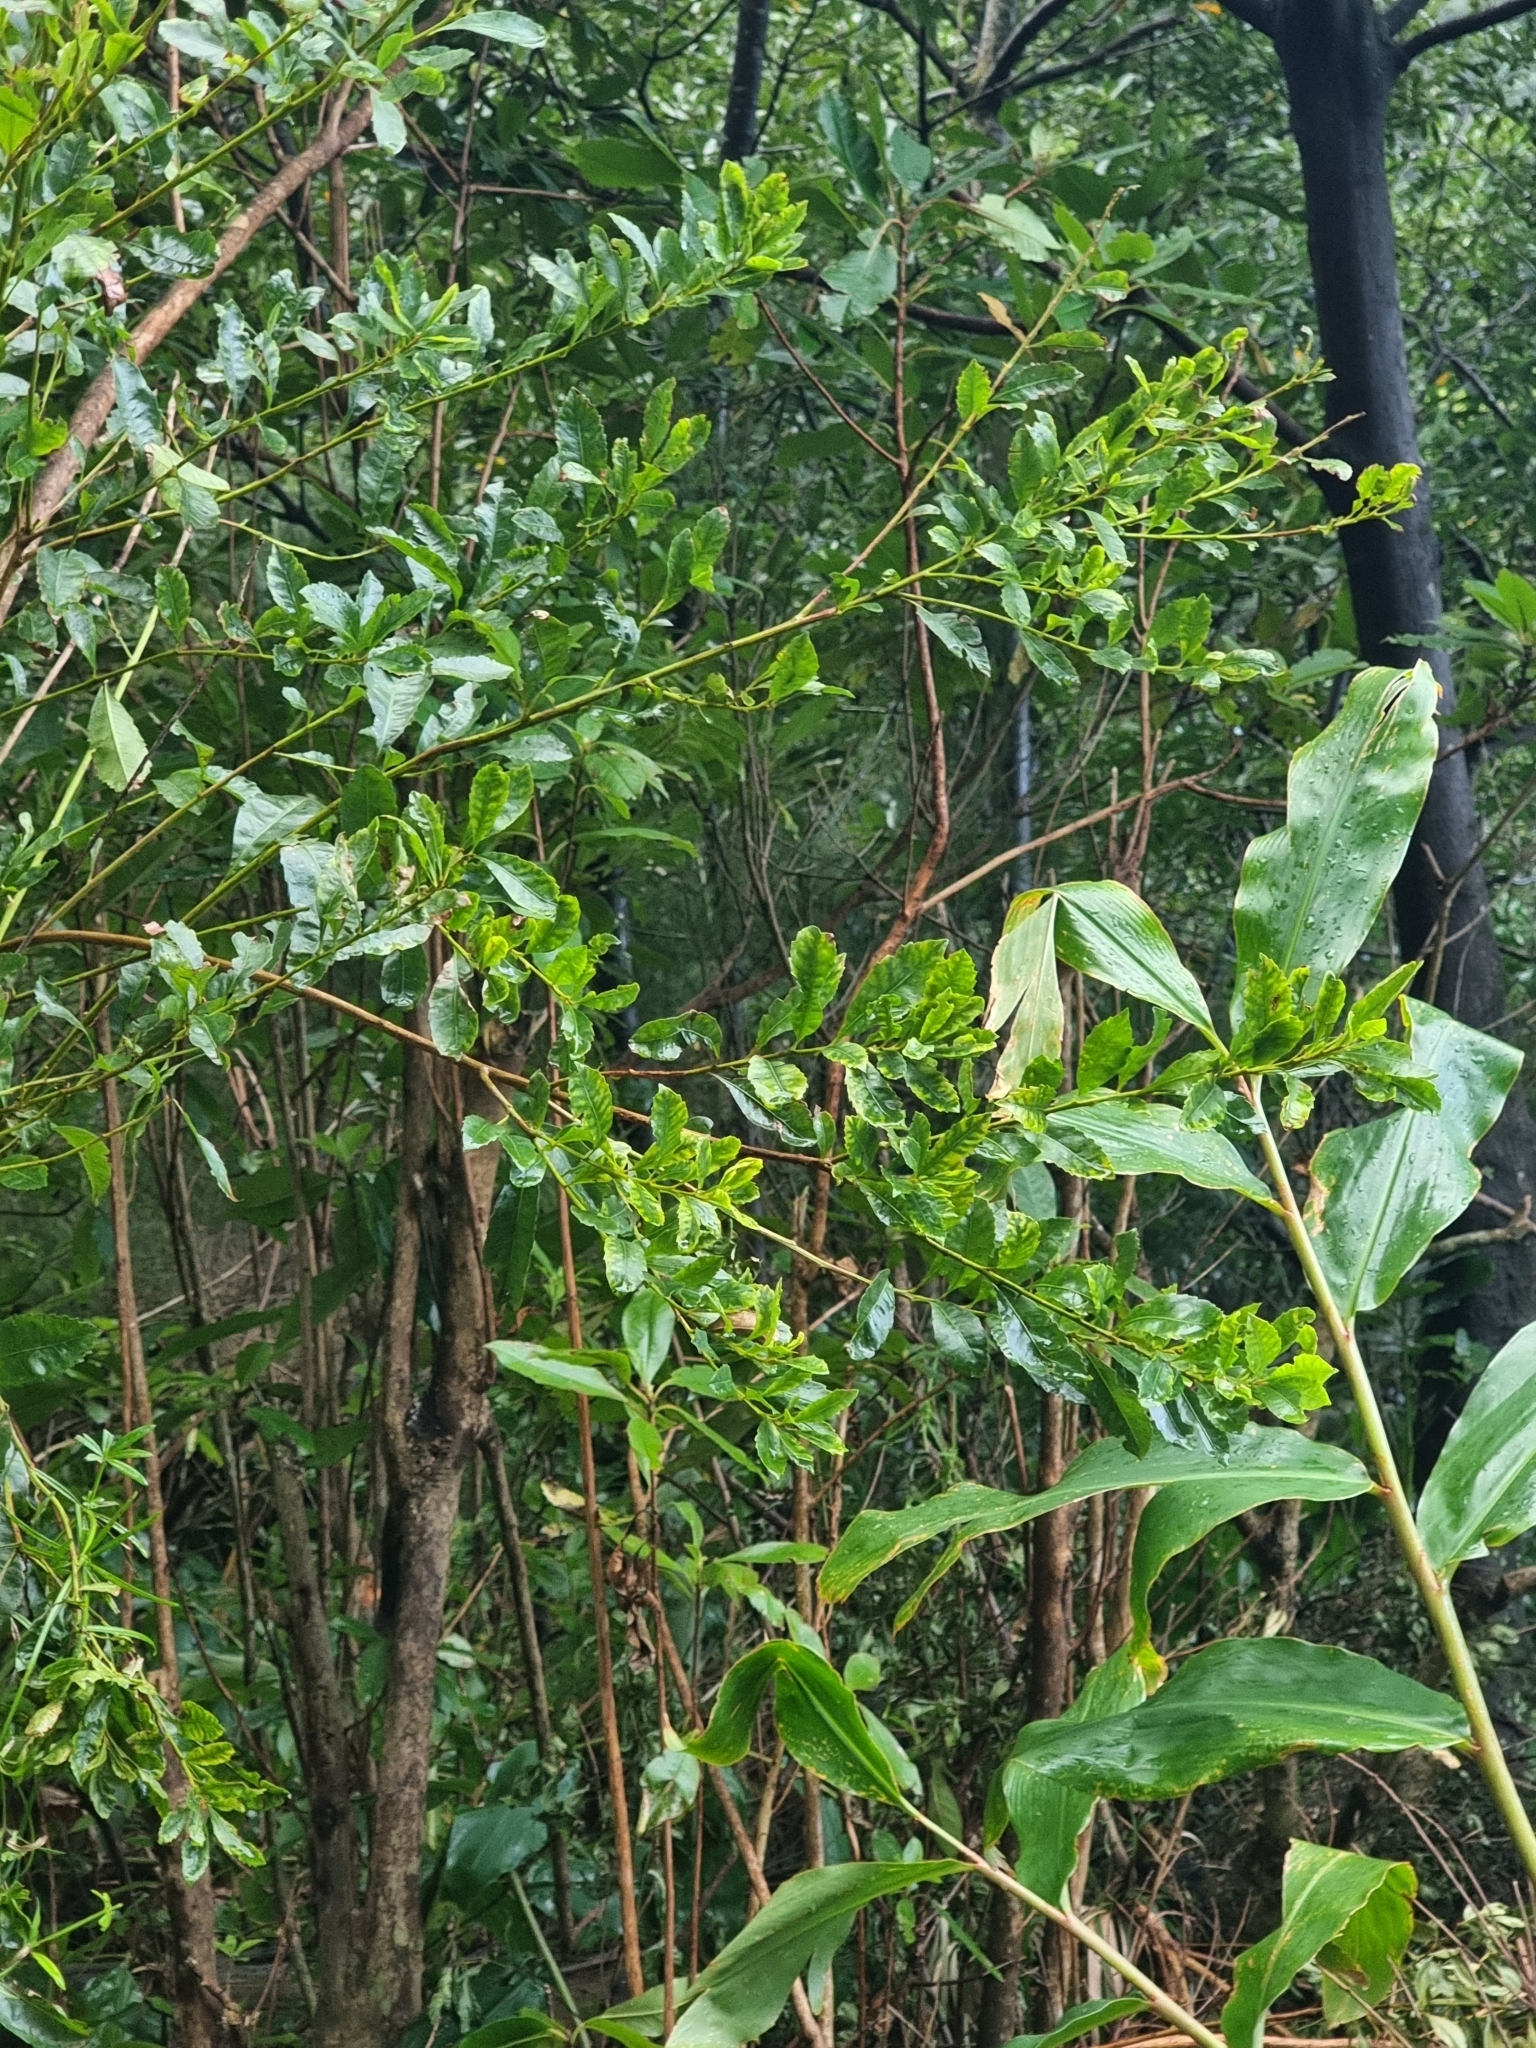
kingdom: Plantae
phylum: Tracheophyta
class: Magnoliopsida
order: Fagales
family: Myricaceae
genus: Morella
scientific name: Morella faya
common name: Firetree
